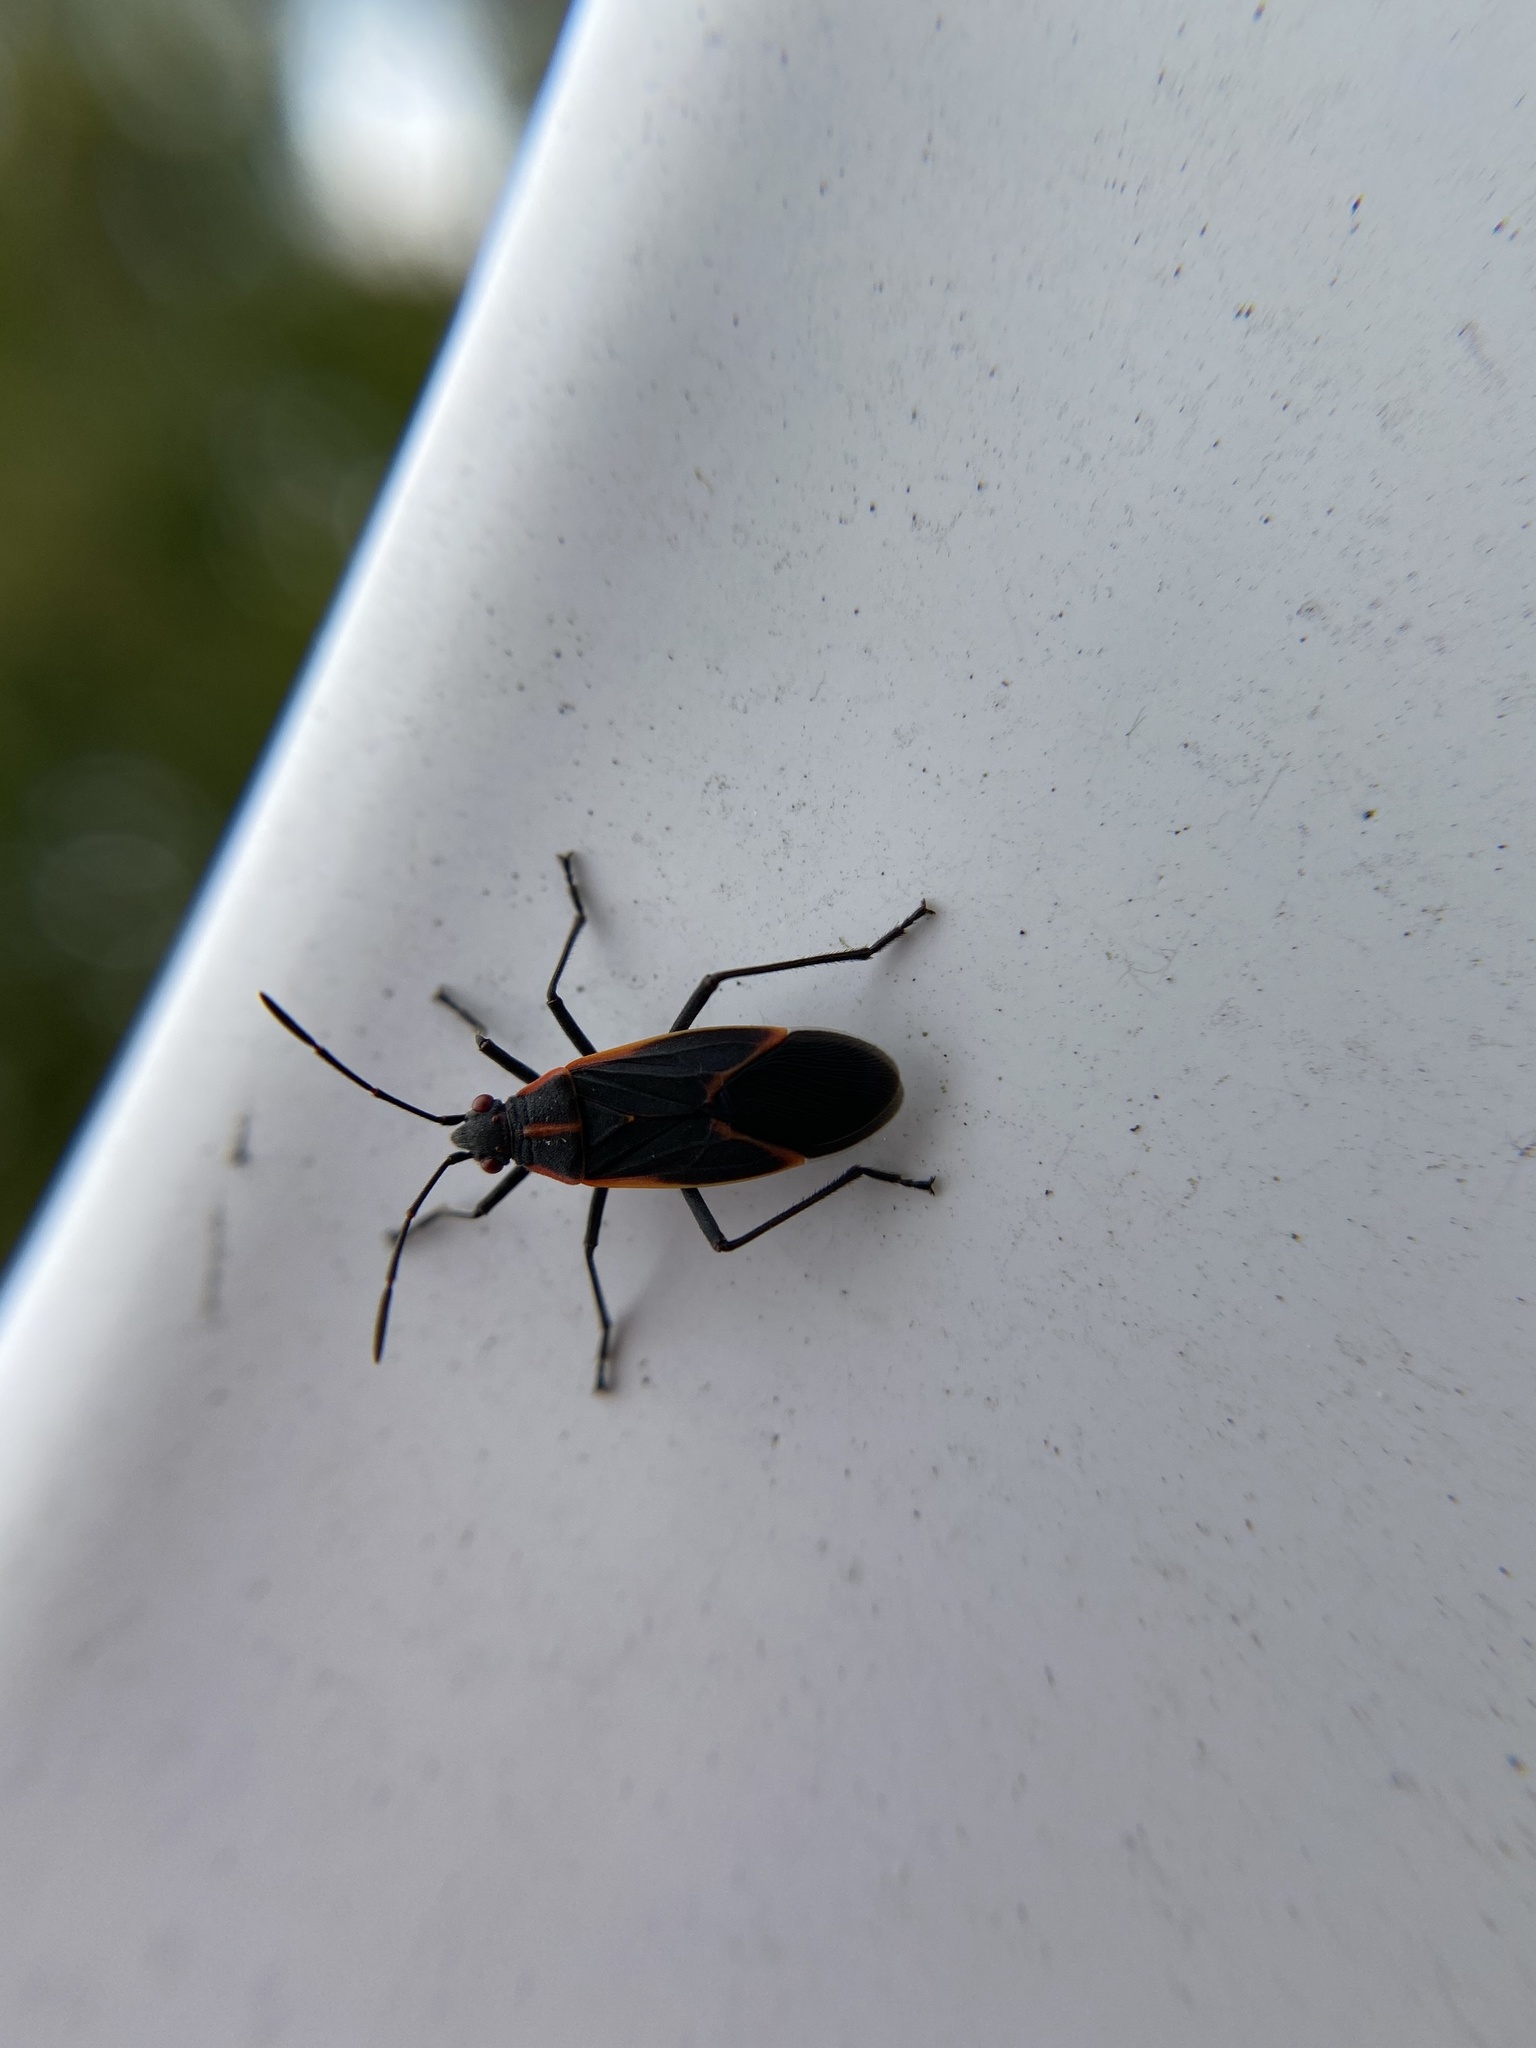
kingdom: Animalia
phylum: Arthropoda
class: Insecta
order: Hemiptera
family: Rhopalidae
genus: Boisea
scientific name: Boisea trivittata
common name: Boxelder bug
